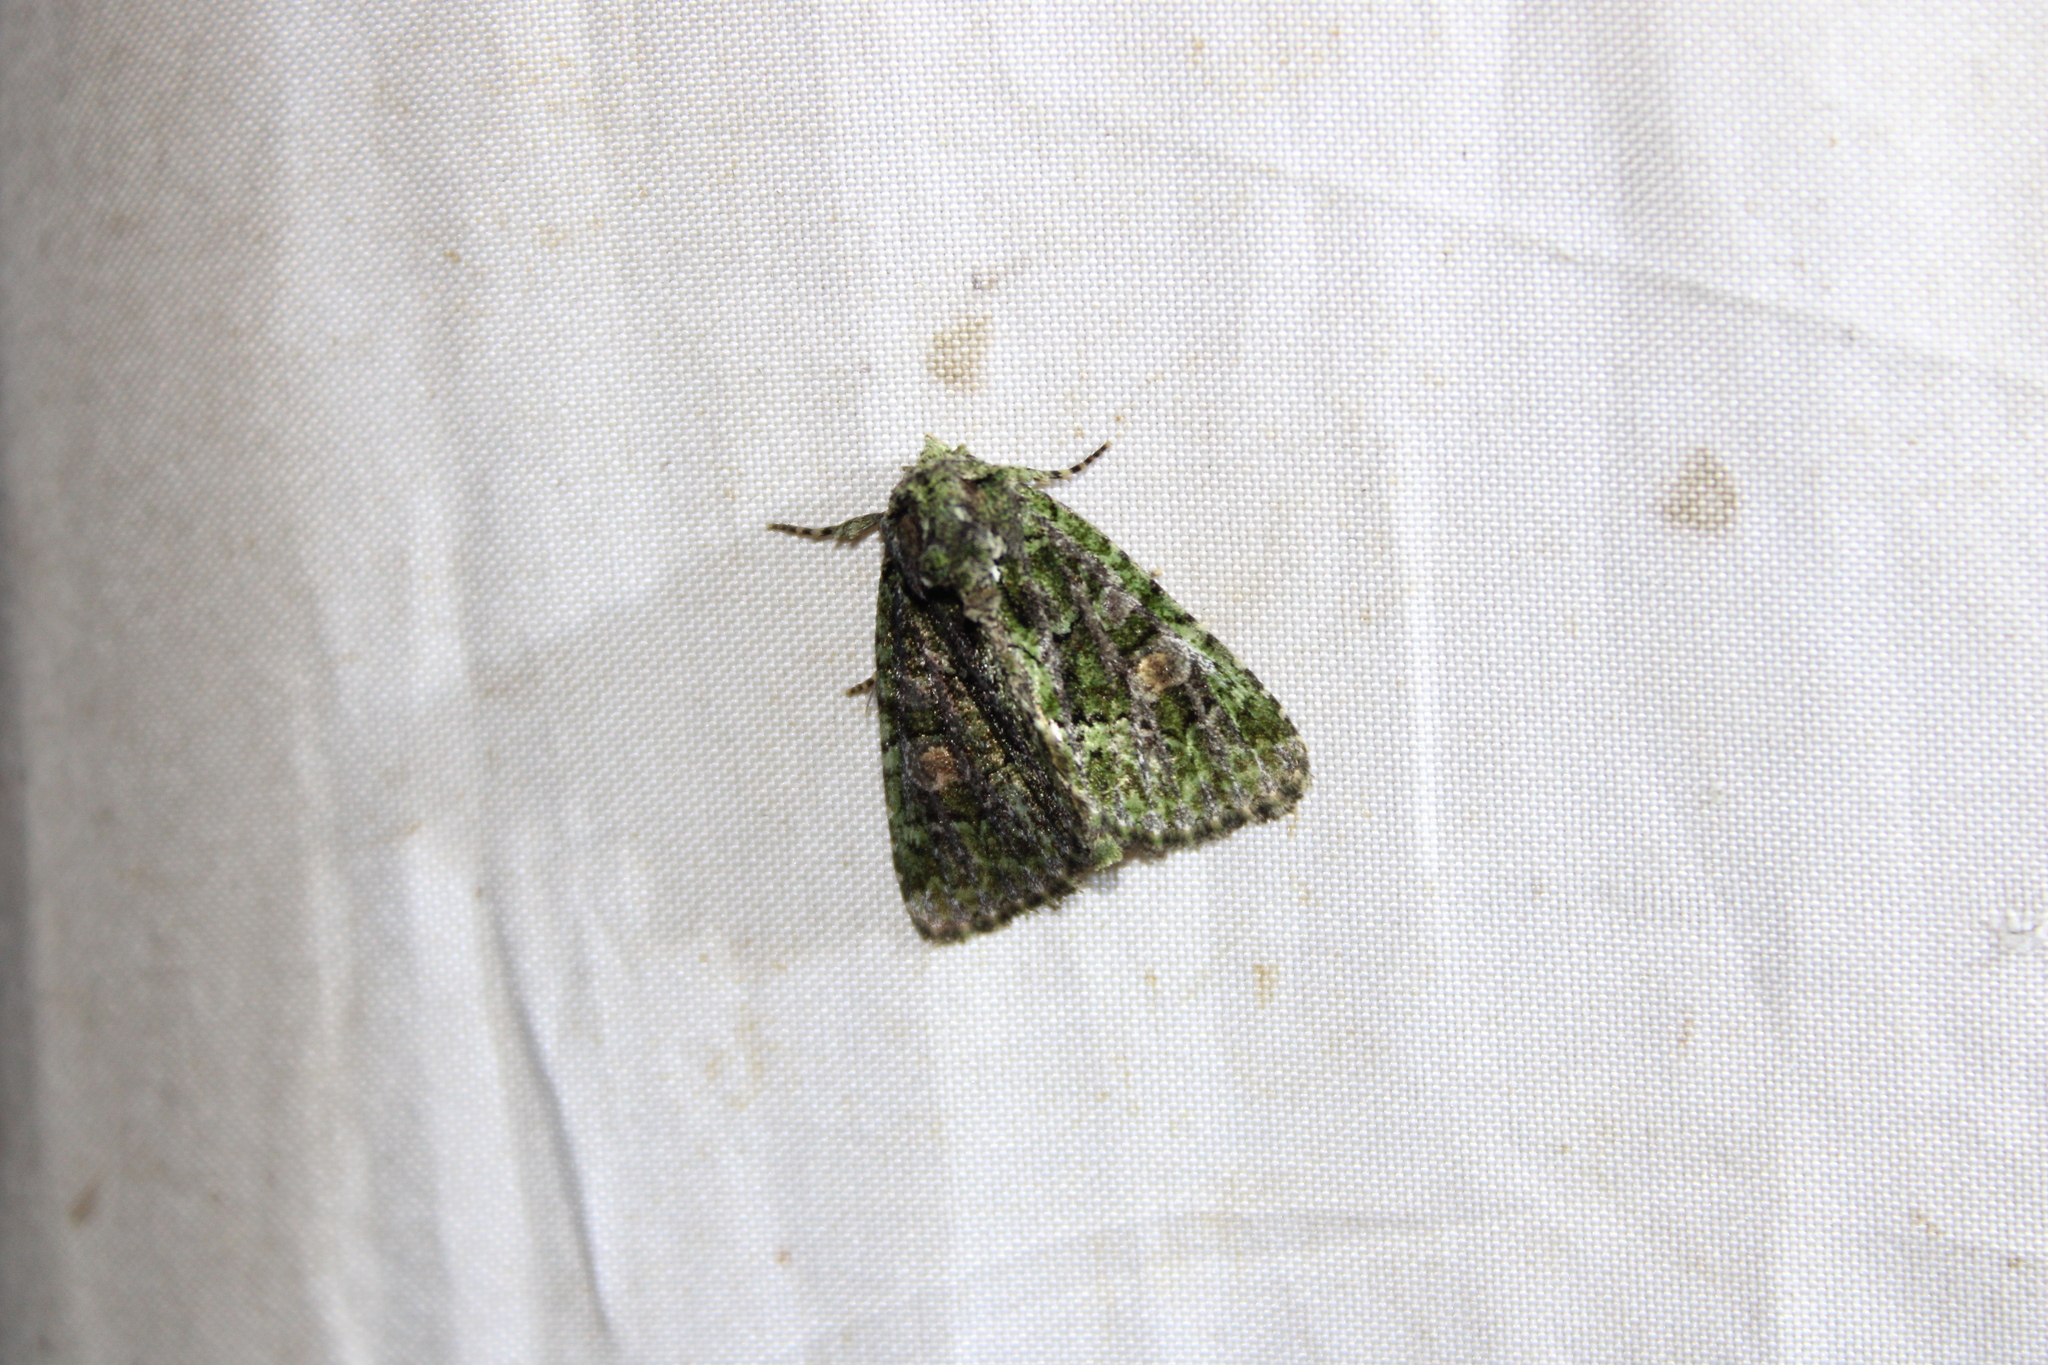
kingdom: Animalia
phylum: Arthropoda
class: Insecta
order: Lepidoptera
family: Noctuidae
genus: Phosphila
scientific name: Phosphila miselioides
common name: Spotted phosphila moth
